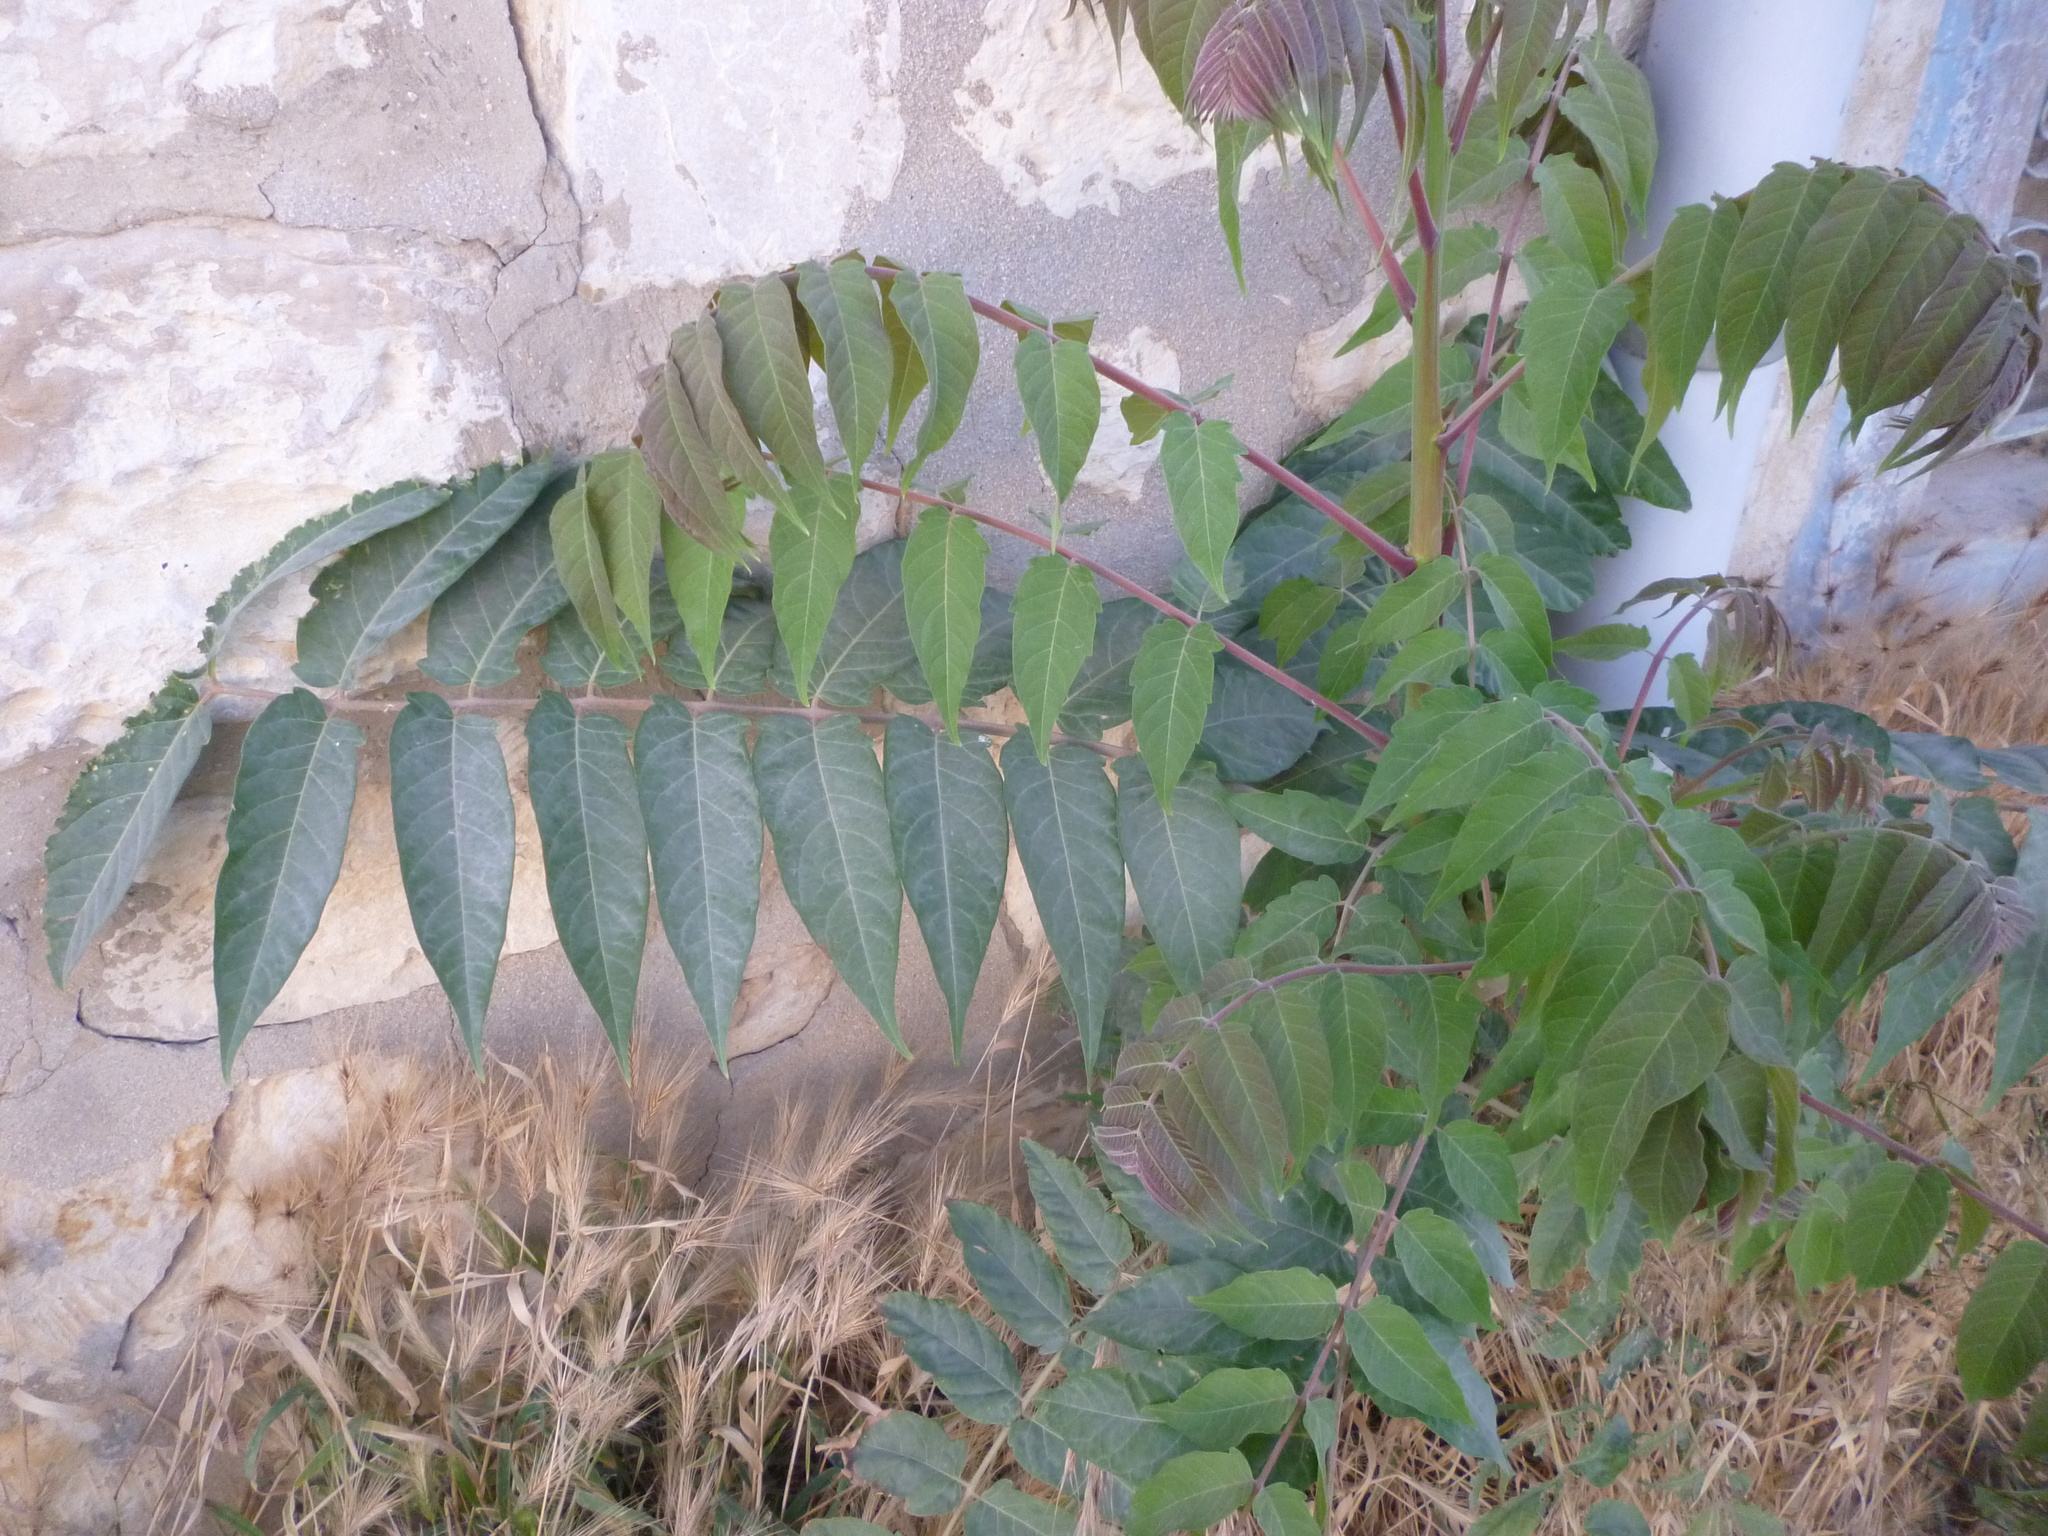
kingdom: Plantae
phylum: Tracheophyta
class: Magnoliopsida
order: Sapindales
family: Simaroubaceae
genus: Ailanthus
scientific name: Ailanthus altissima
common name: Tree-of-heaven
